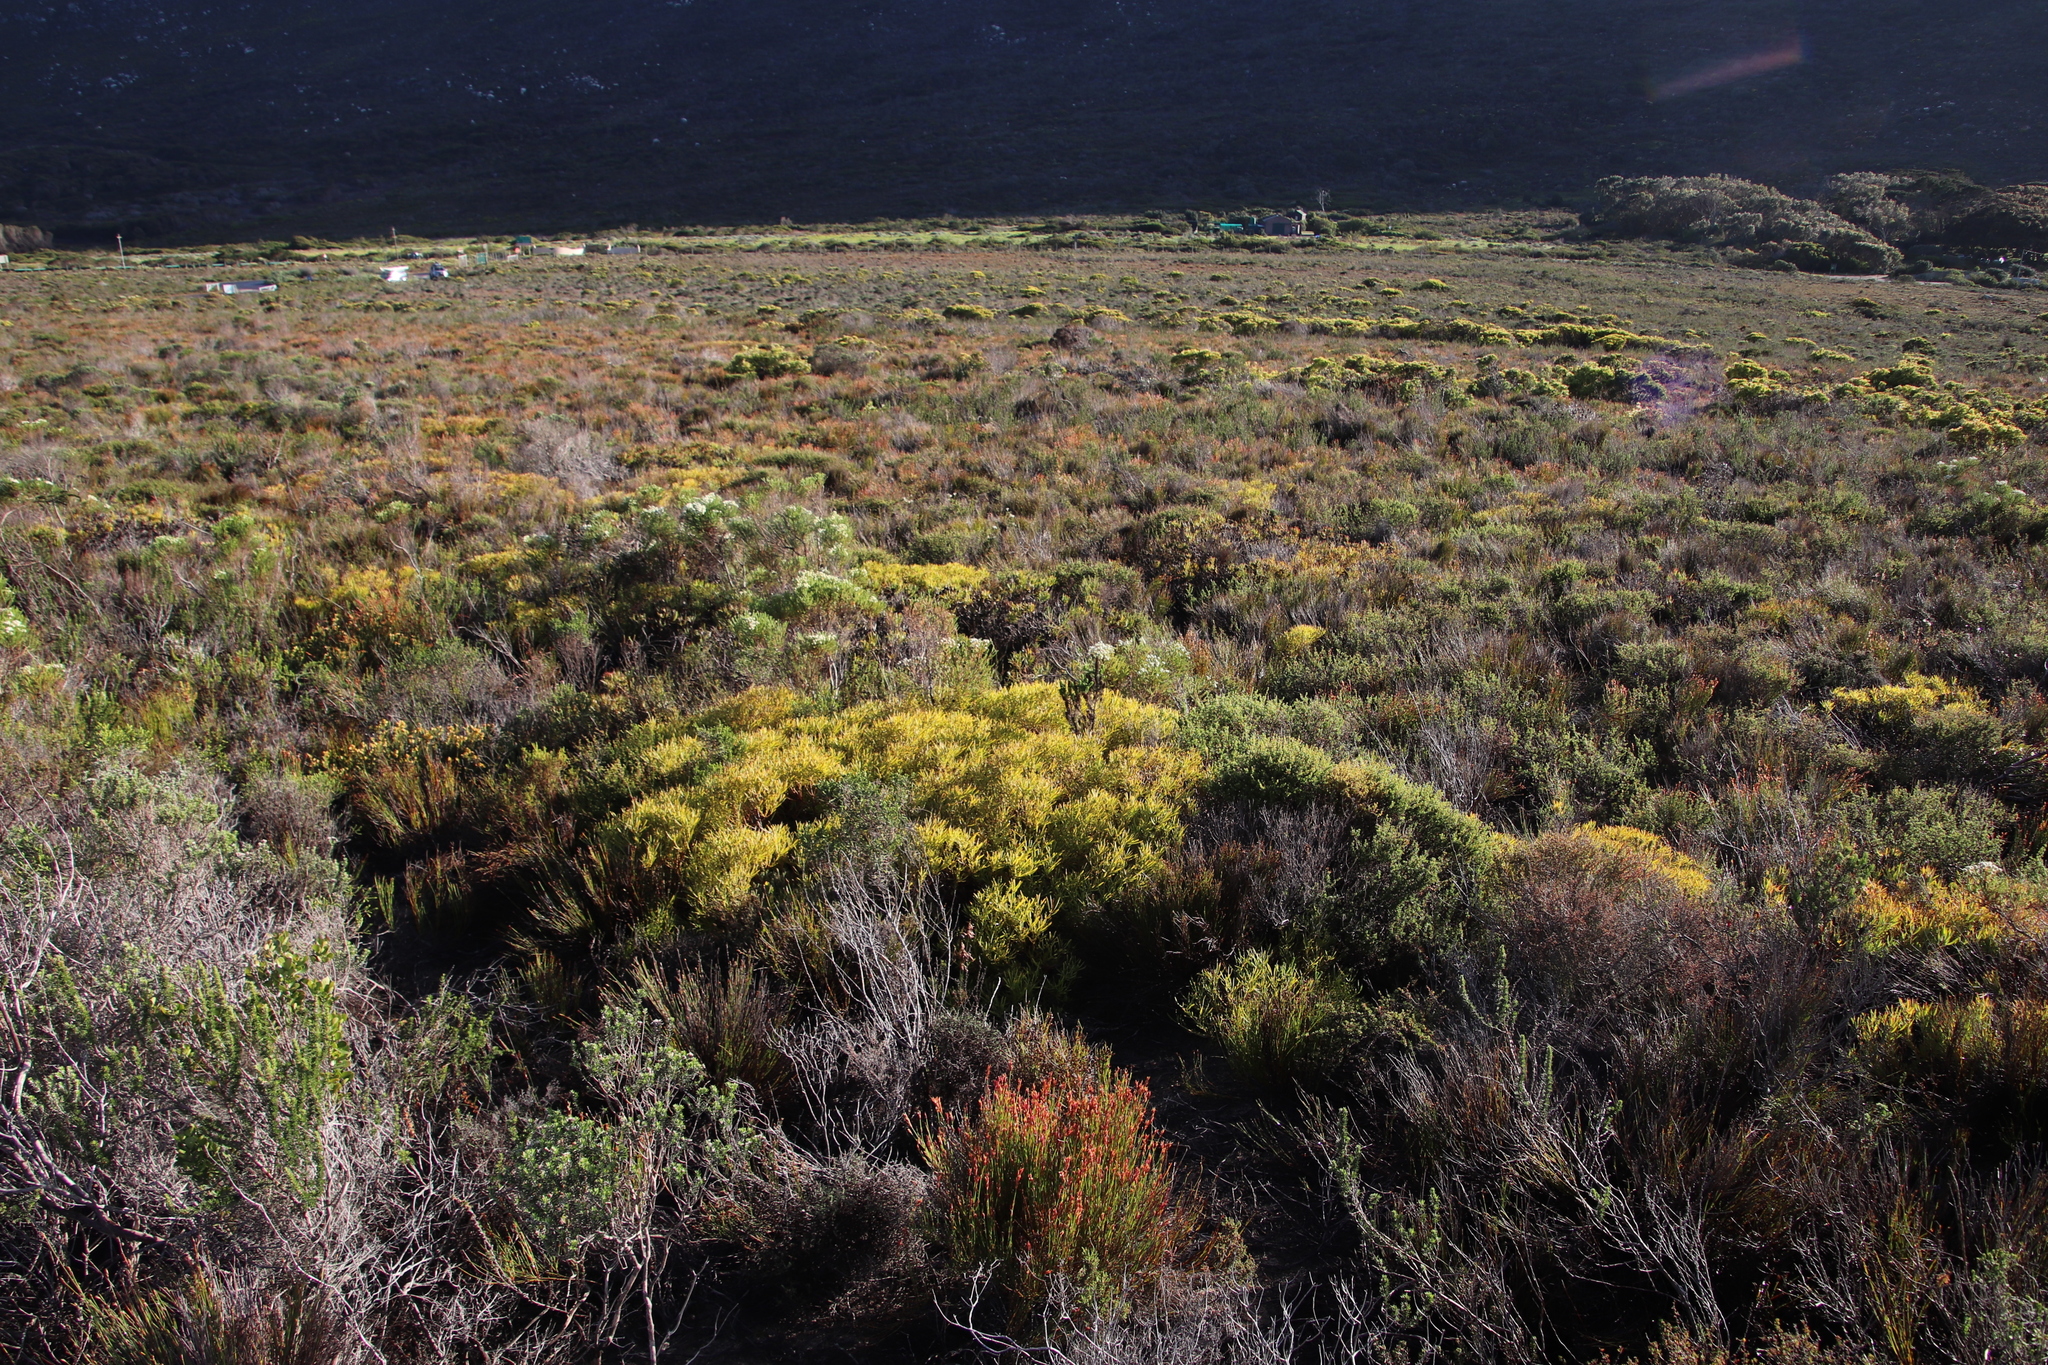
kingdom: Plantae
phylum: Tracheophyta
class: Magnoliopsida
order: Proteales
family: Proteaceae
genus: Leucadendron
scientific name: Leucadendron salignum
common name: Common sunshine conebush
